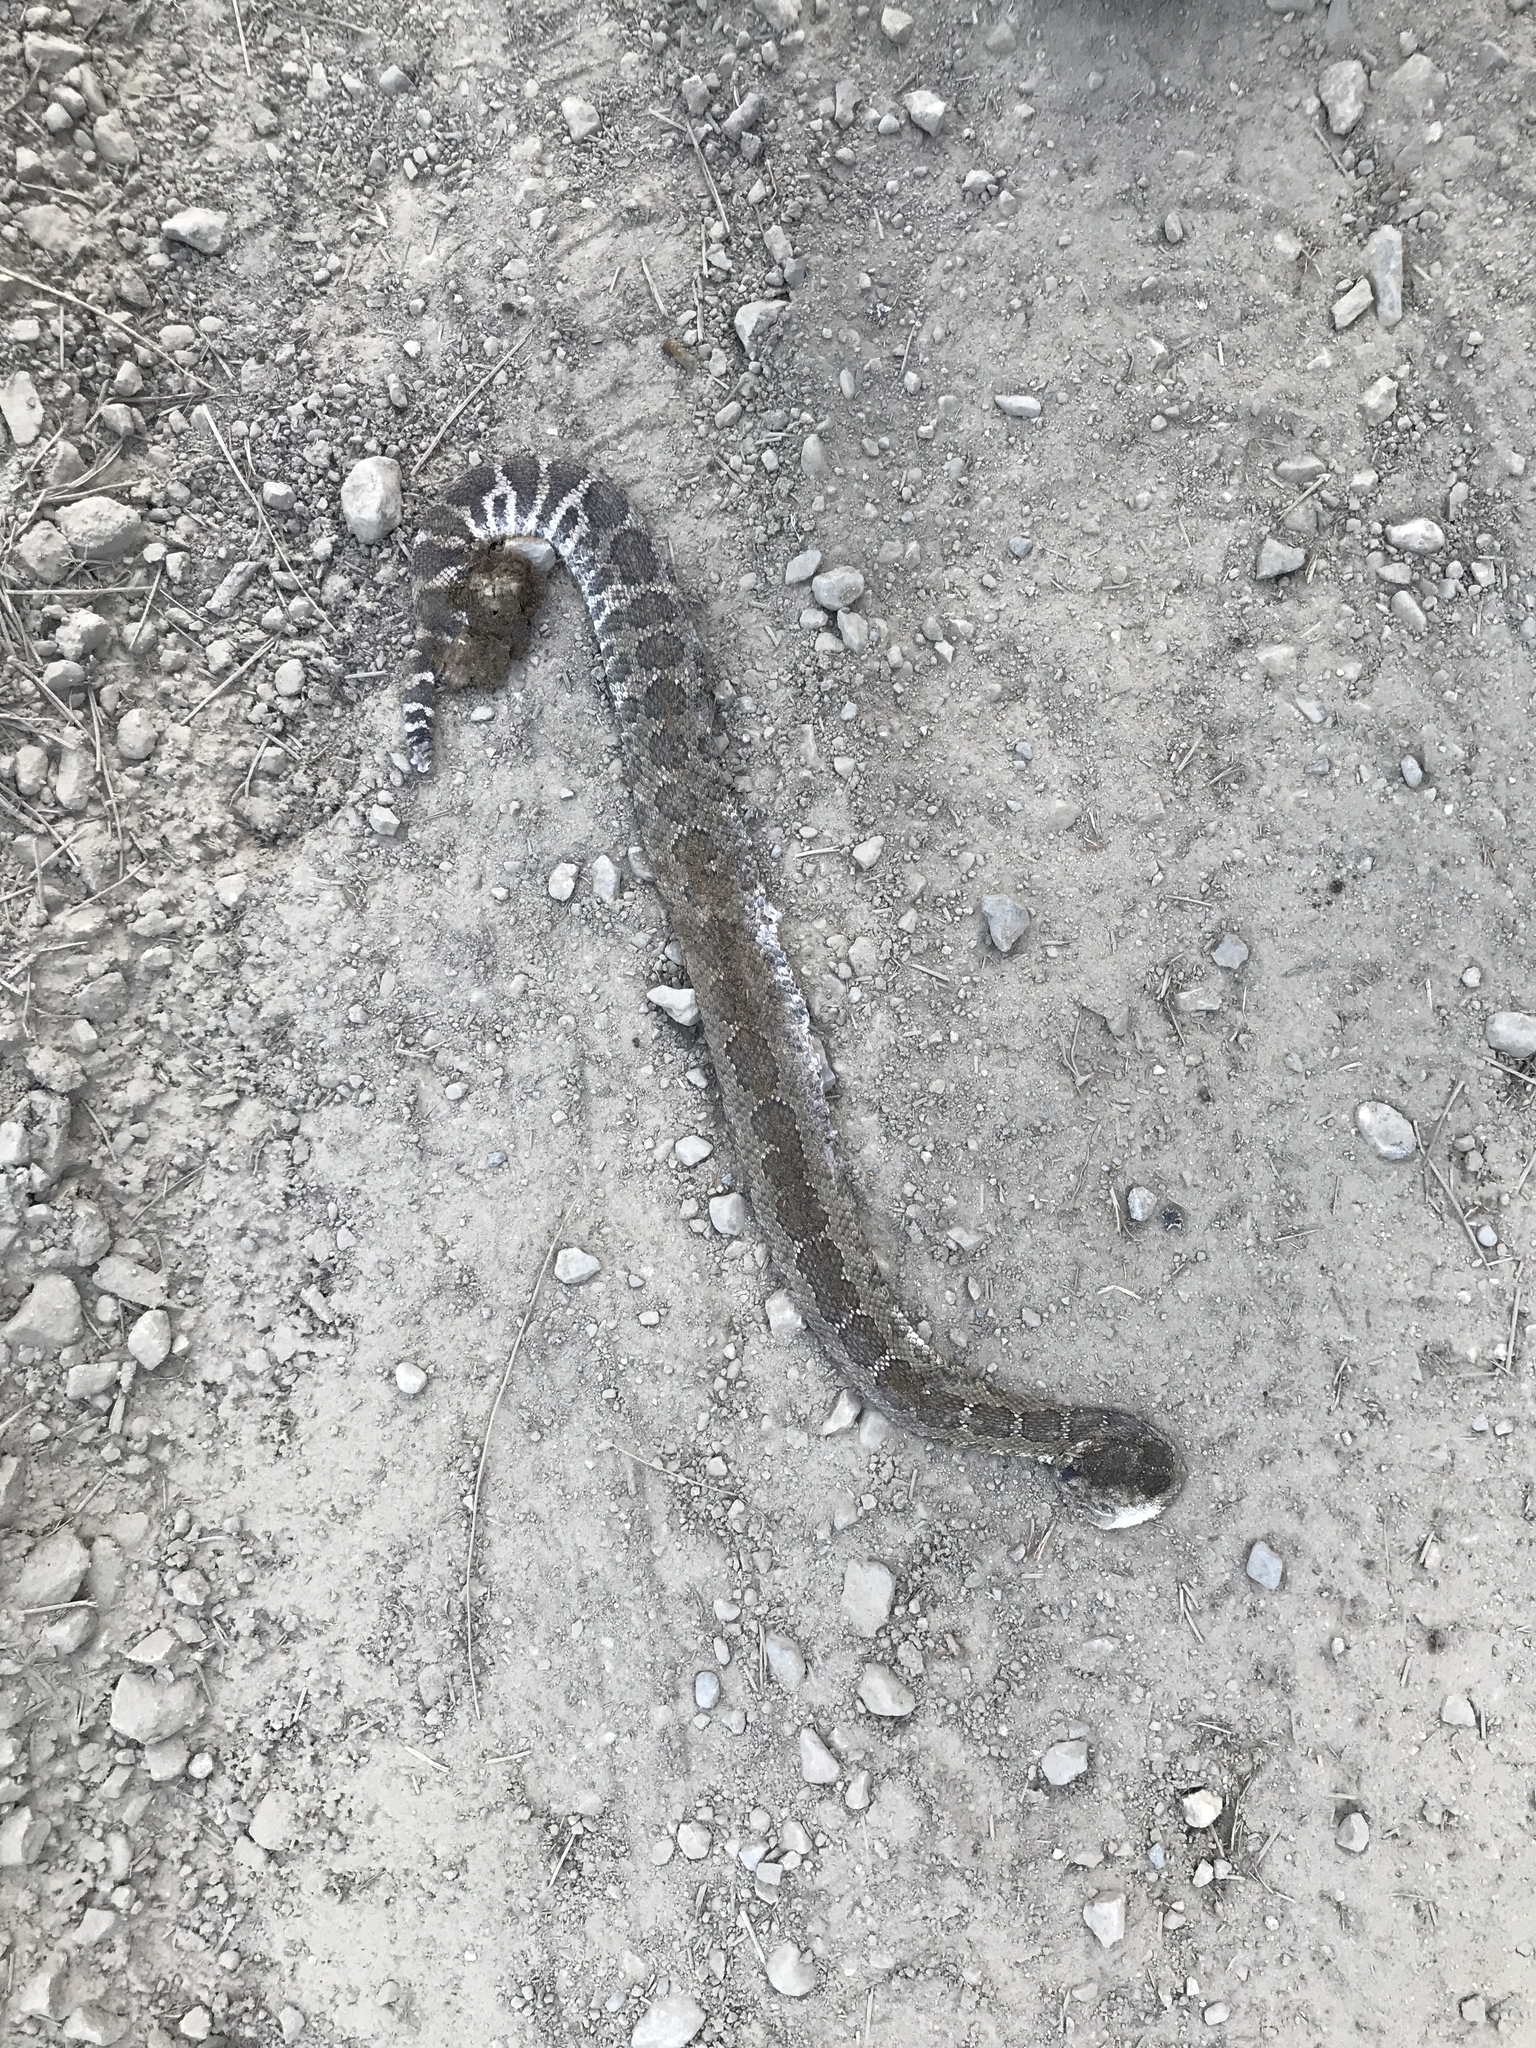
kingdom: Animalia
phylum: Chordata
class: Squamata
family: Viperidae
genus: Crotalus
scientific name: Crotalus oreganus
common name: Abyssus
